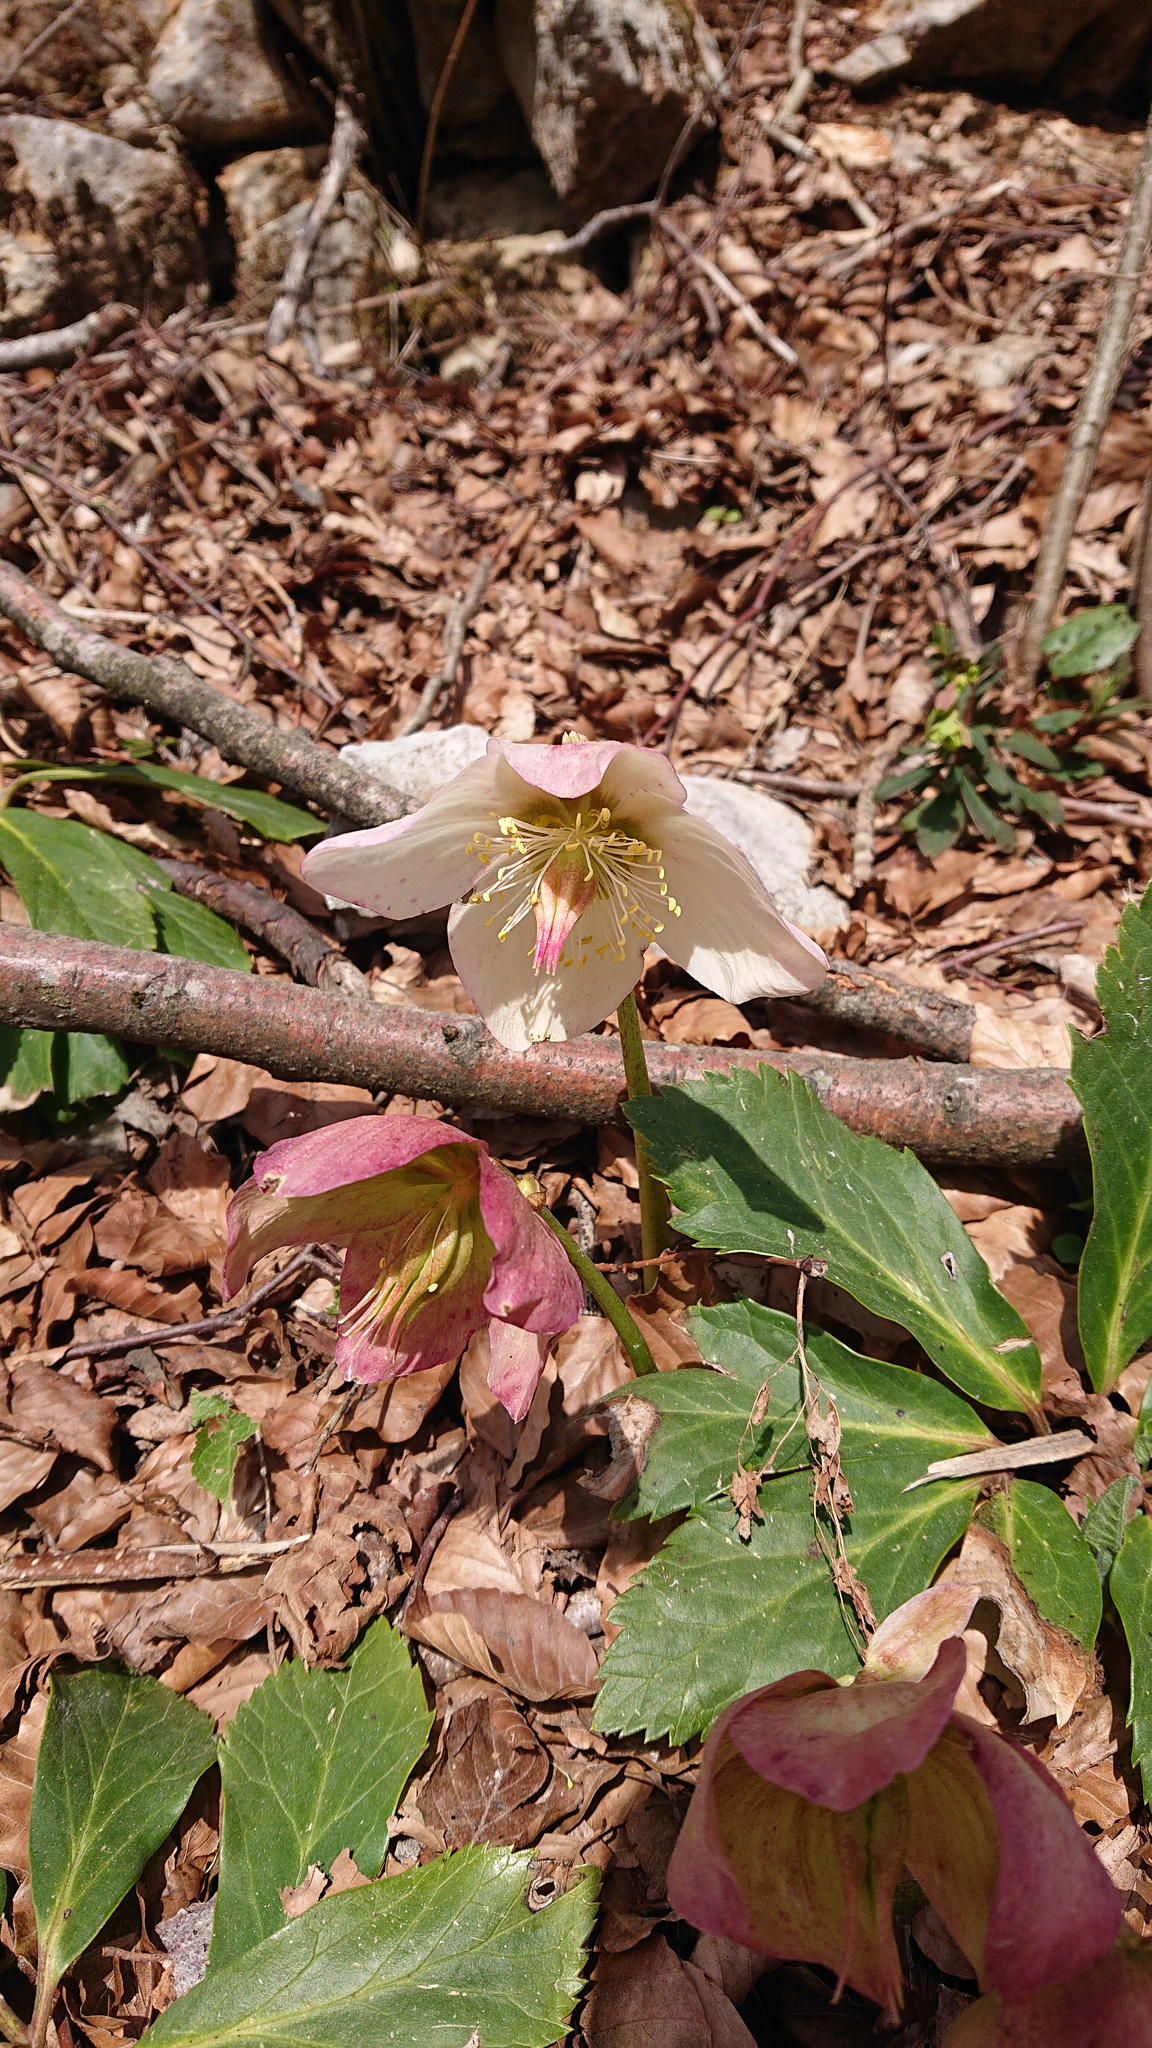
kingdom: Plantae
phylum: Tracheophyta
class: Magnoliopsida
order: Ranunculales
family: Ranunculaceae
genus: Helleborus
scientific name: Helleborus niger
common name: Black hellebore
